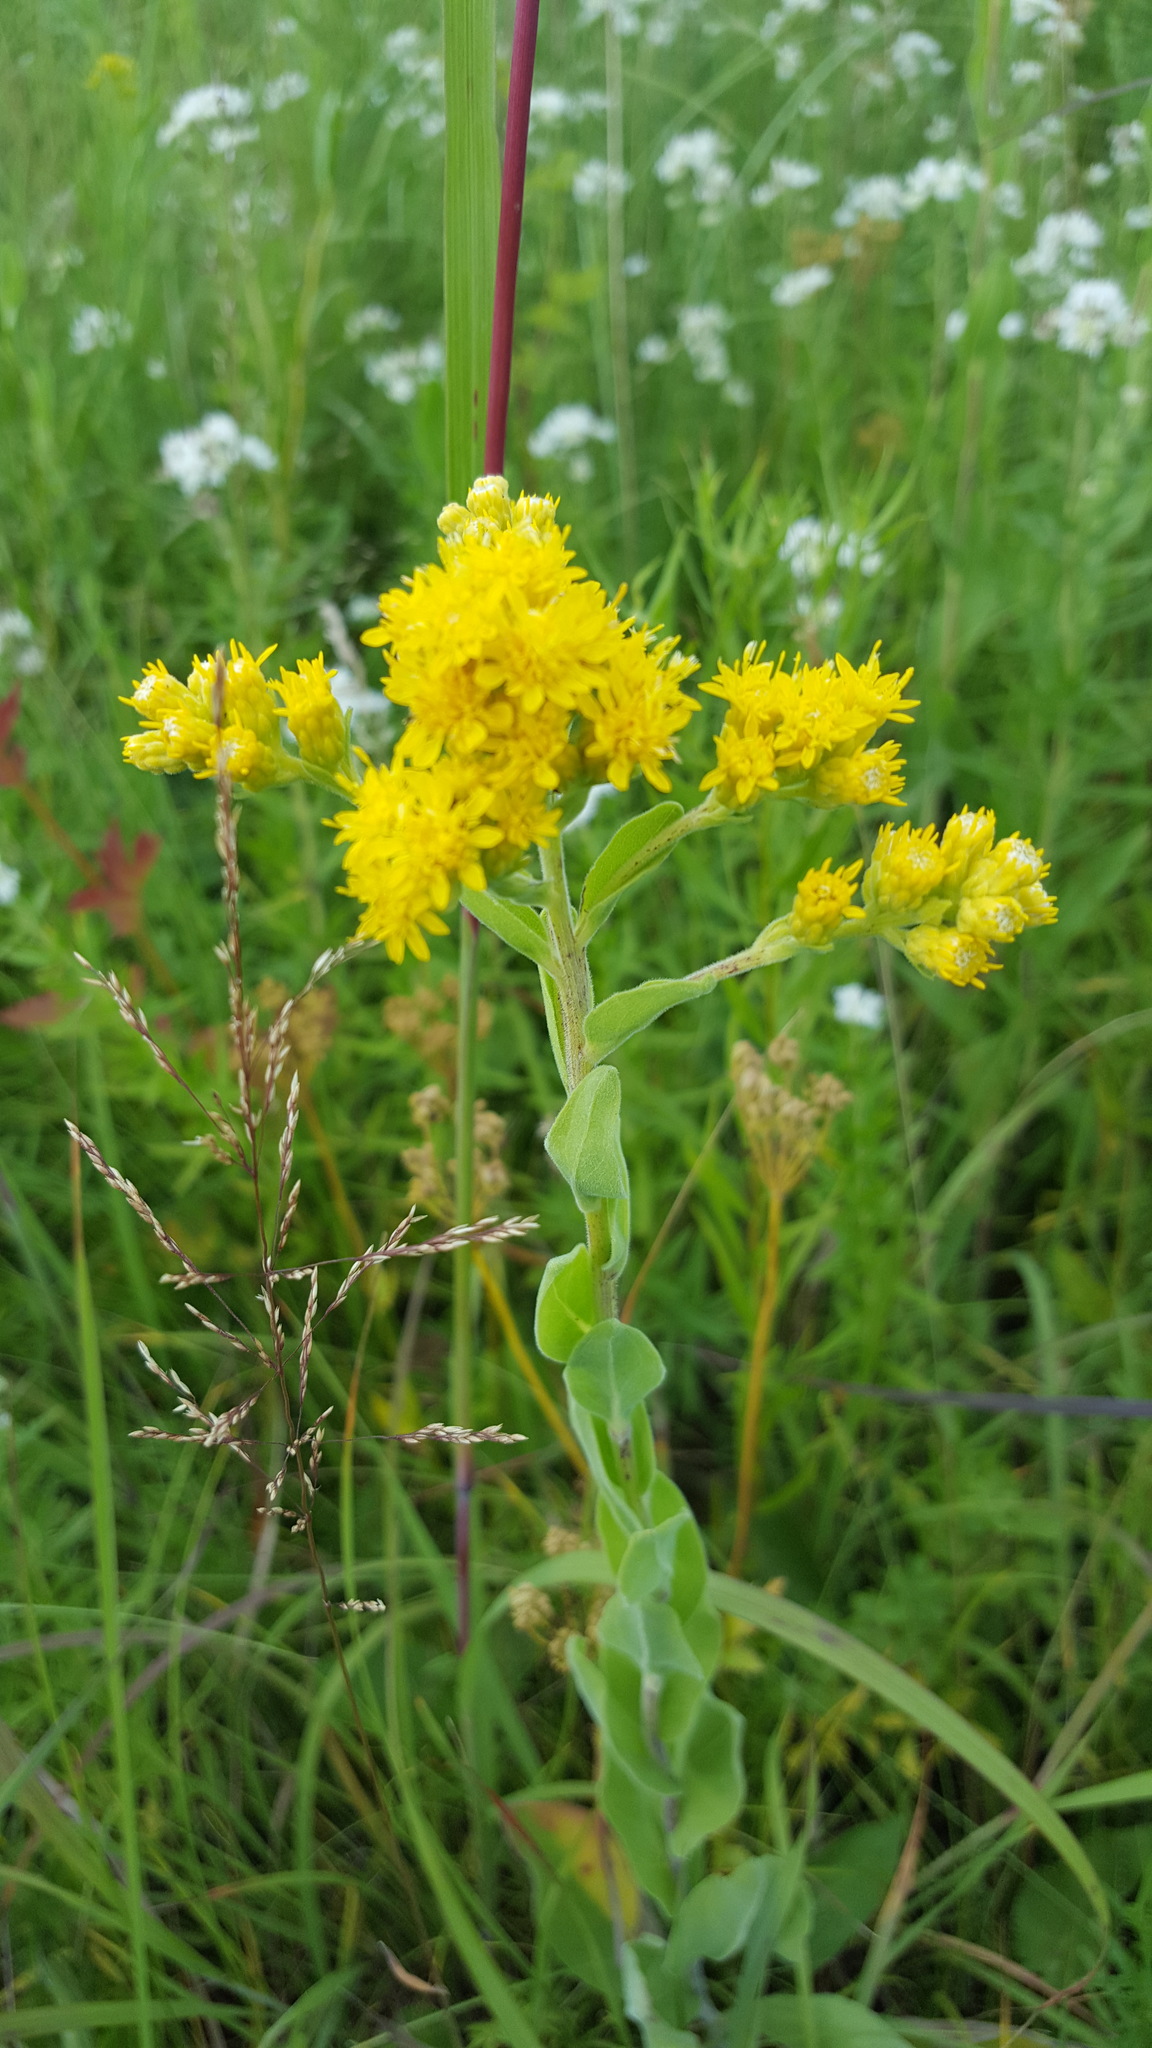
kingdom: Plantae
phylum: Tracheophyta
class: Magnoliopsida
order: Asterales
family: Asteraceae
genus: Solidago
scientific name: Solidago rigida
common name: Rigid goldenrod
